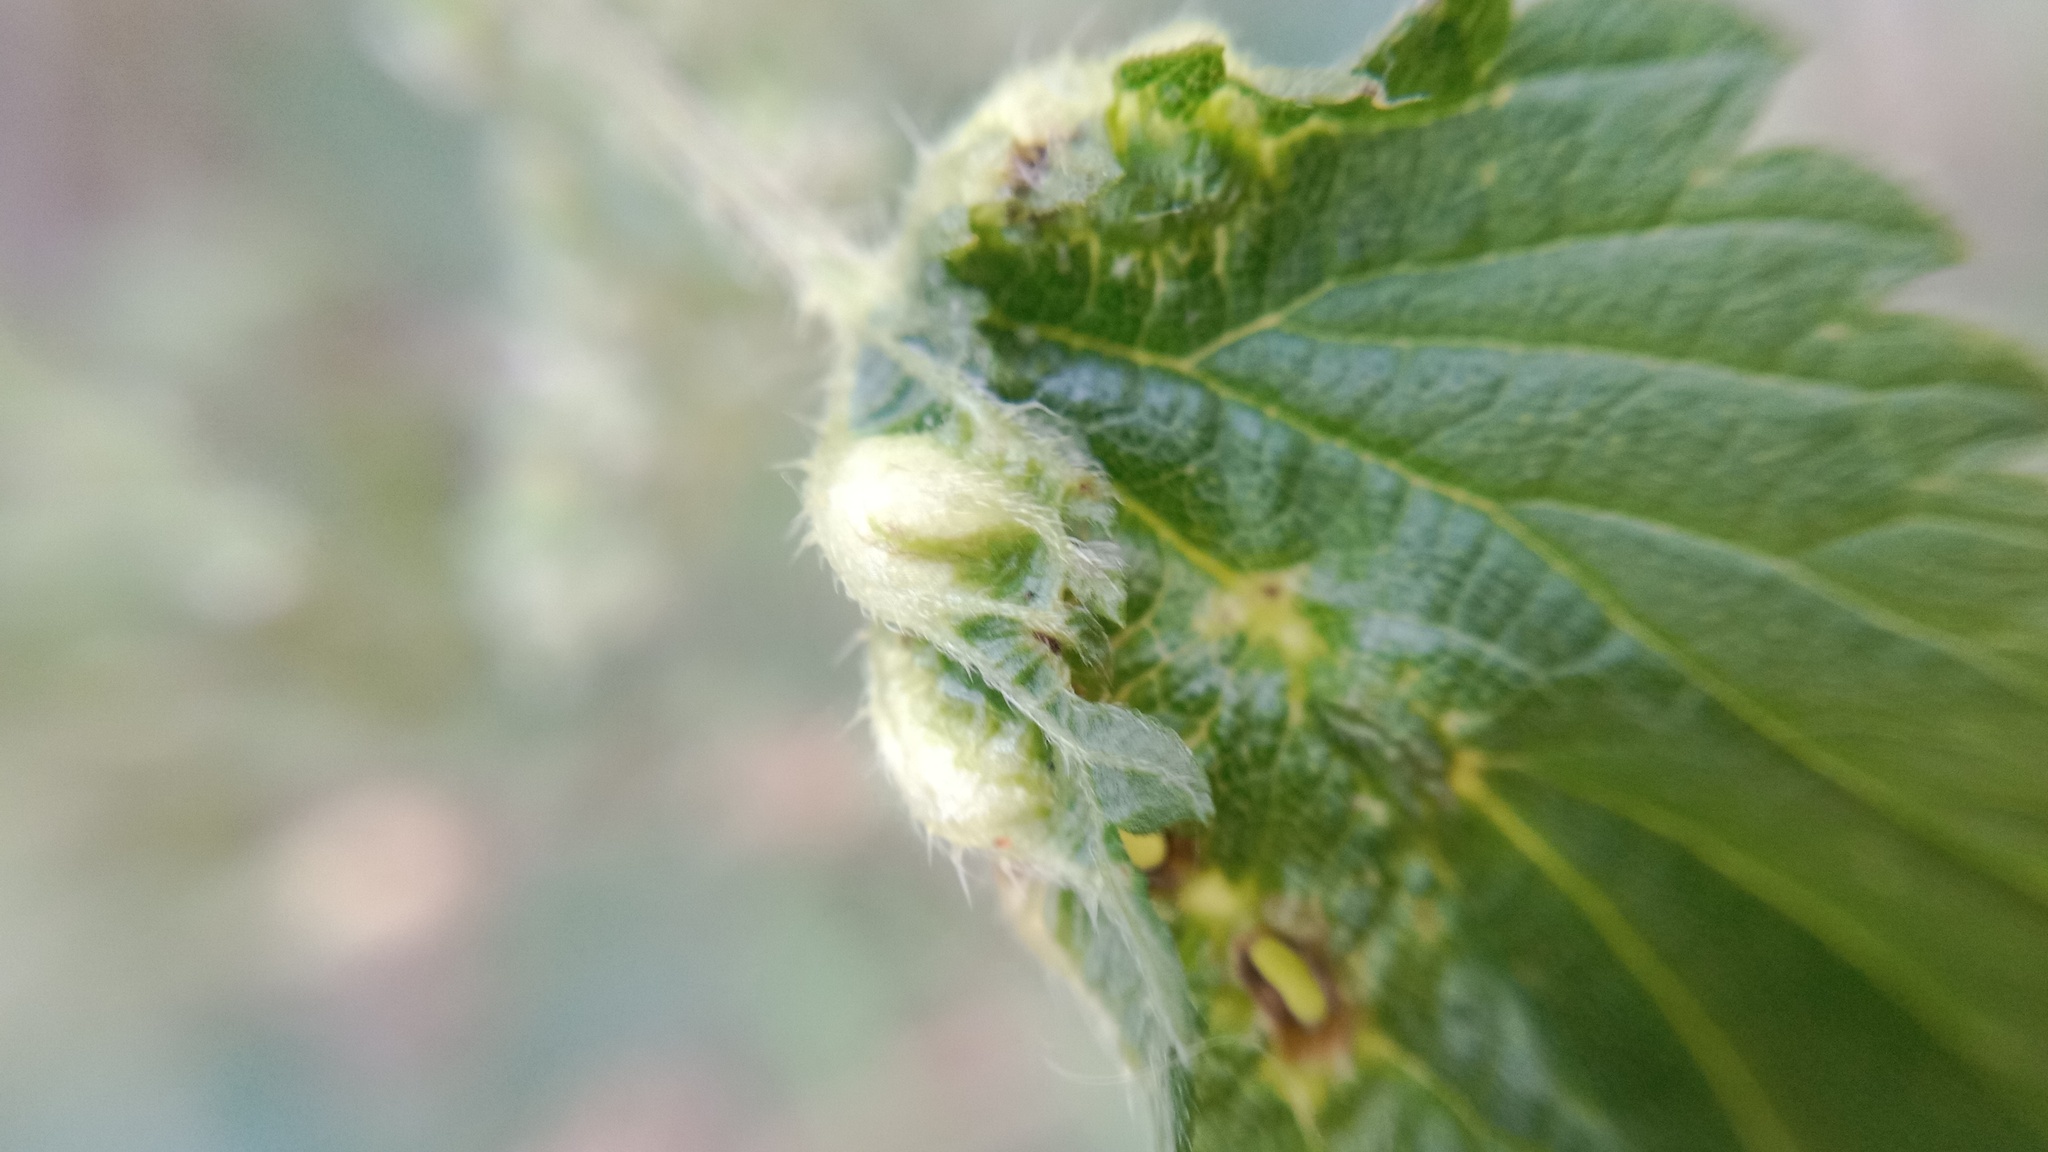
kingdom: Animalia
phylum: Arthropoda
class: Insecta
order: Diptera
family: Cecidomyiidae
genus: Dasineura
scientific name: Dasineura urticae
